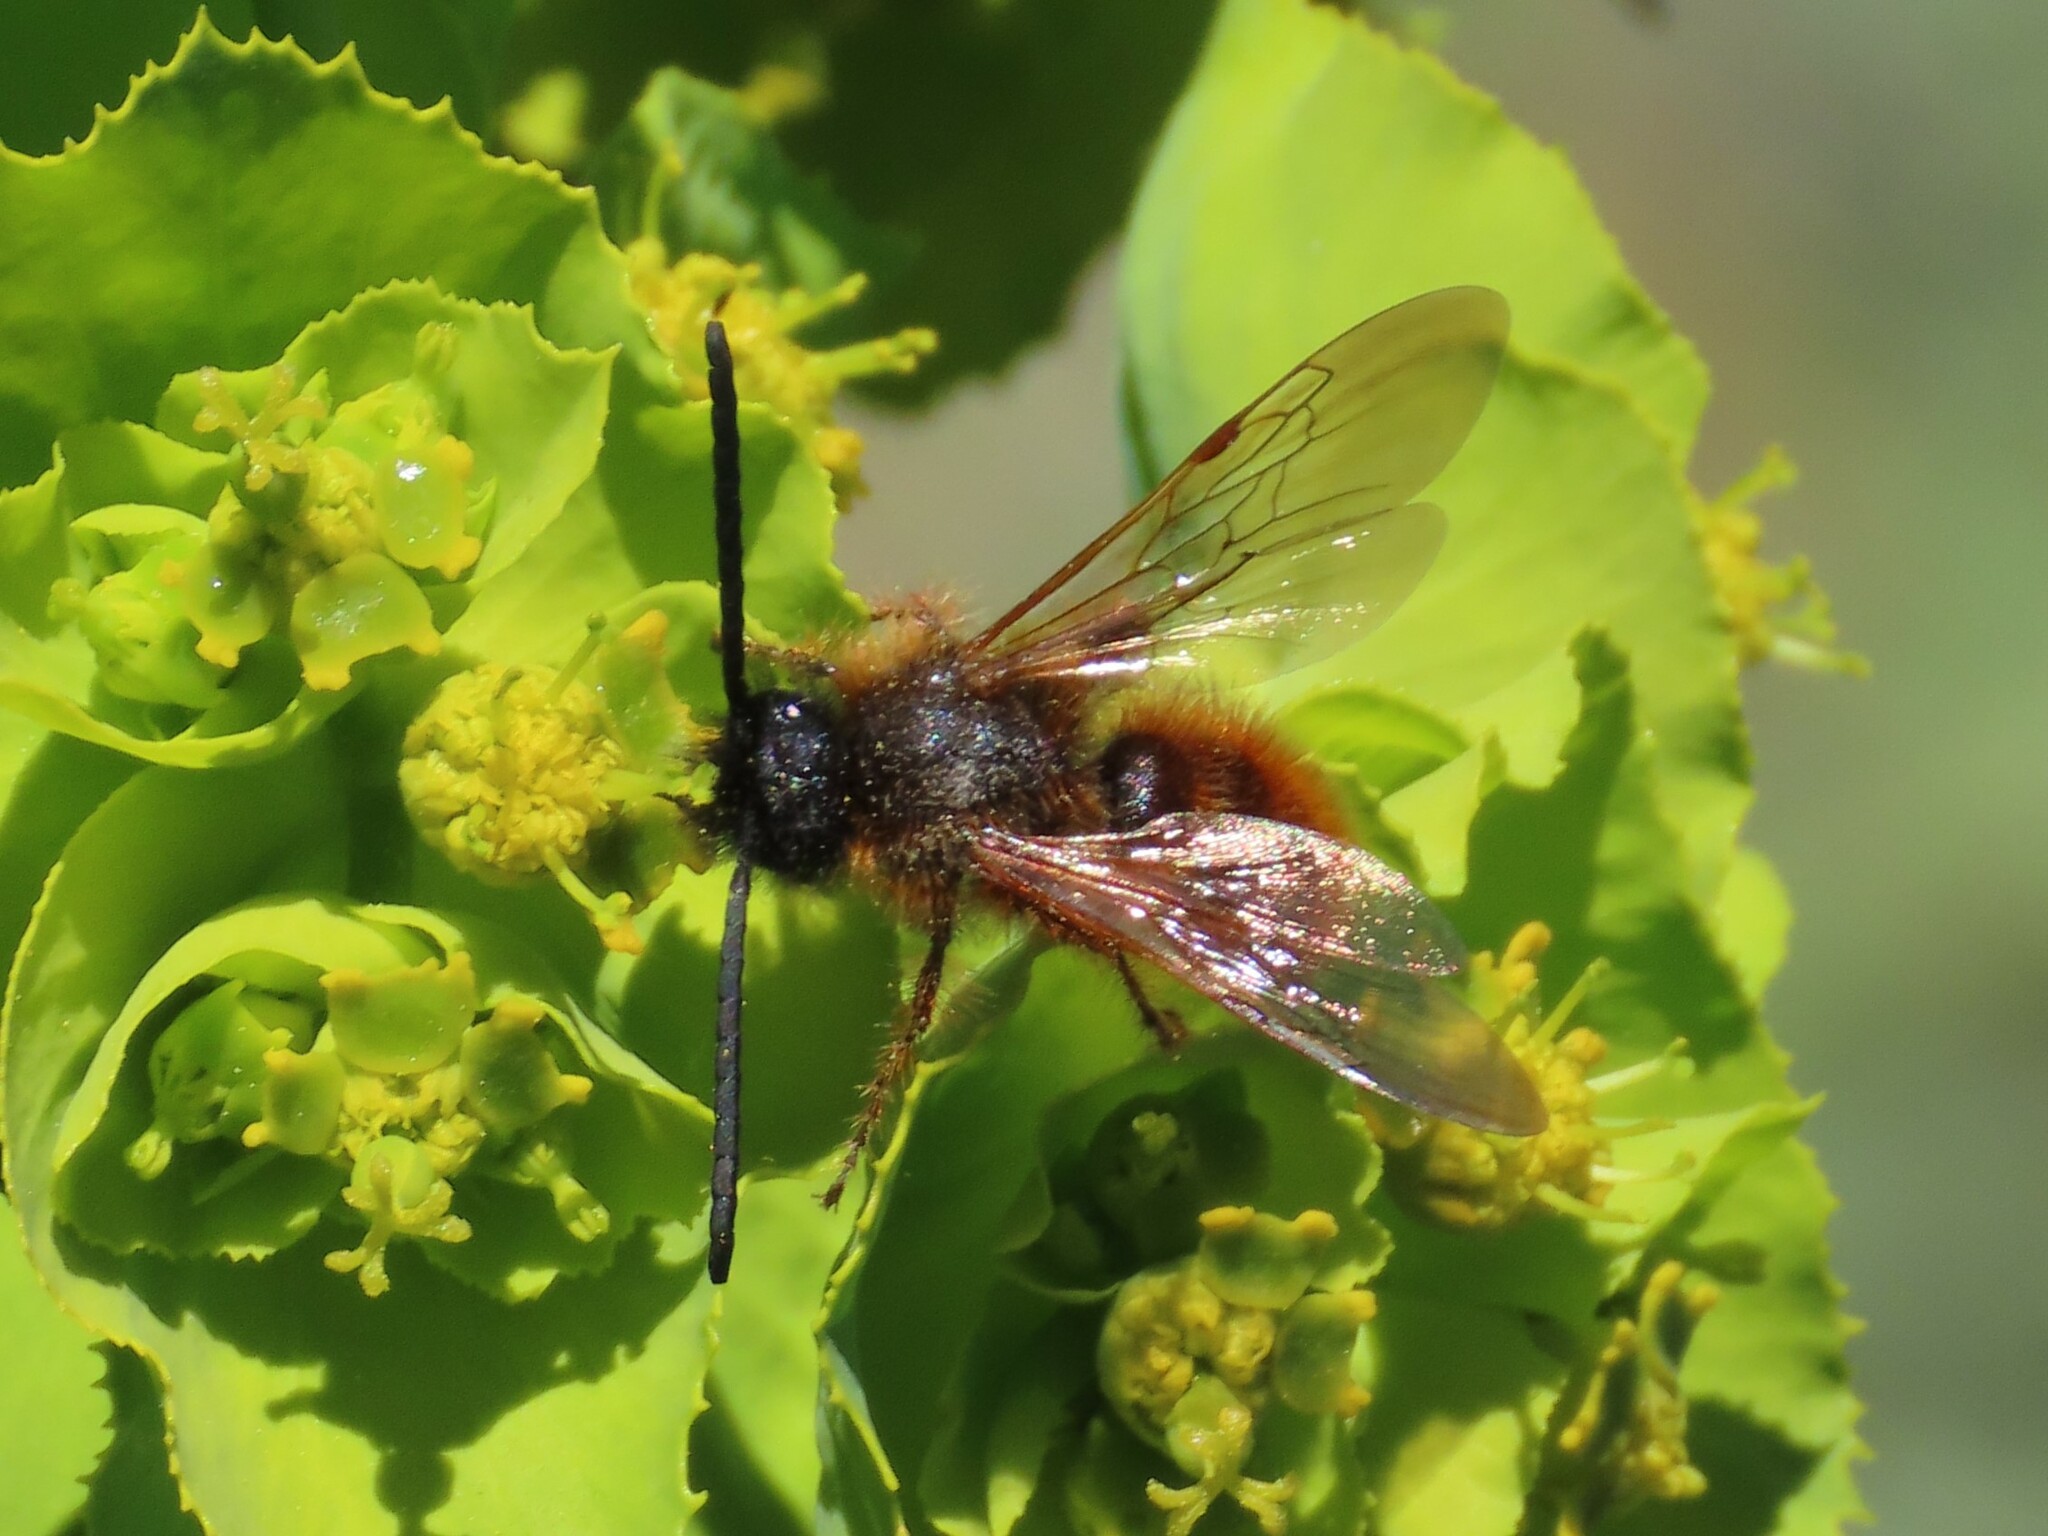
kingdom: Animalia
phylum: Arthropoda
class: Insecta
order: Hymenoptera
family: Scoliidae
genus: Dasyscolia
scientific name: Dasyscolia ciliata
